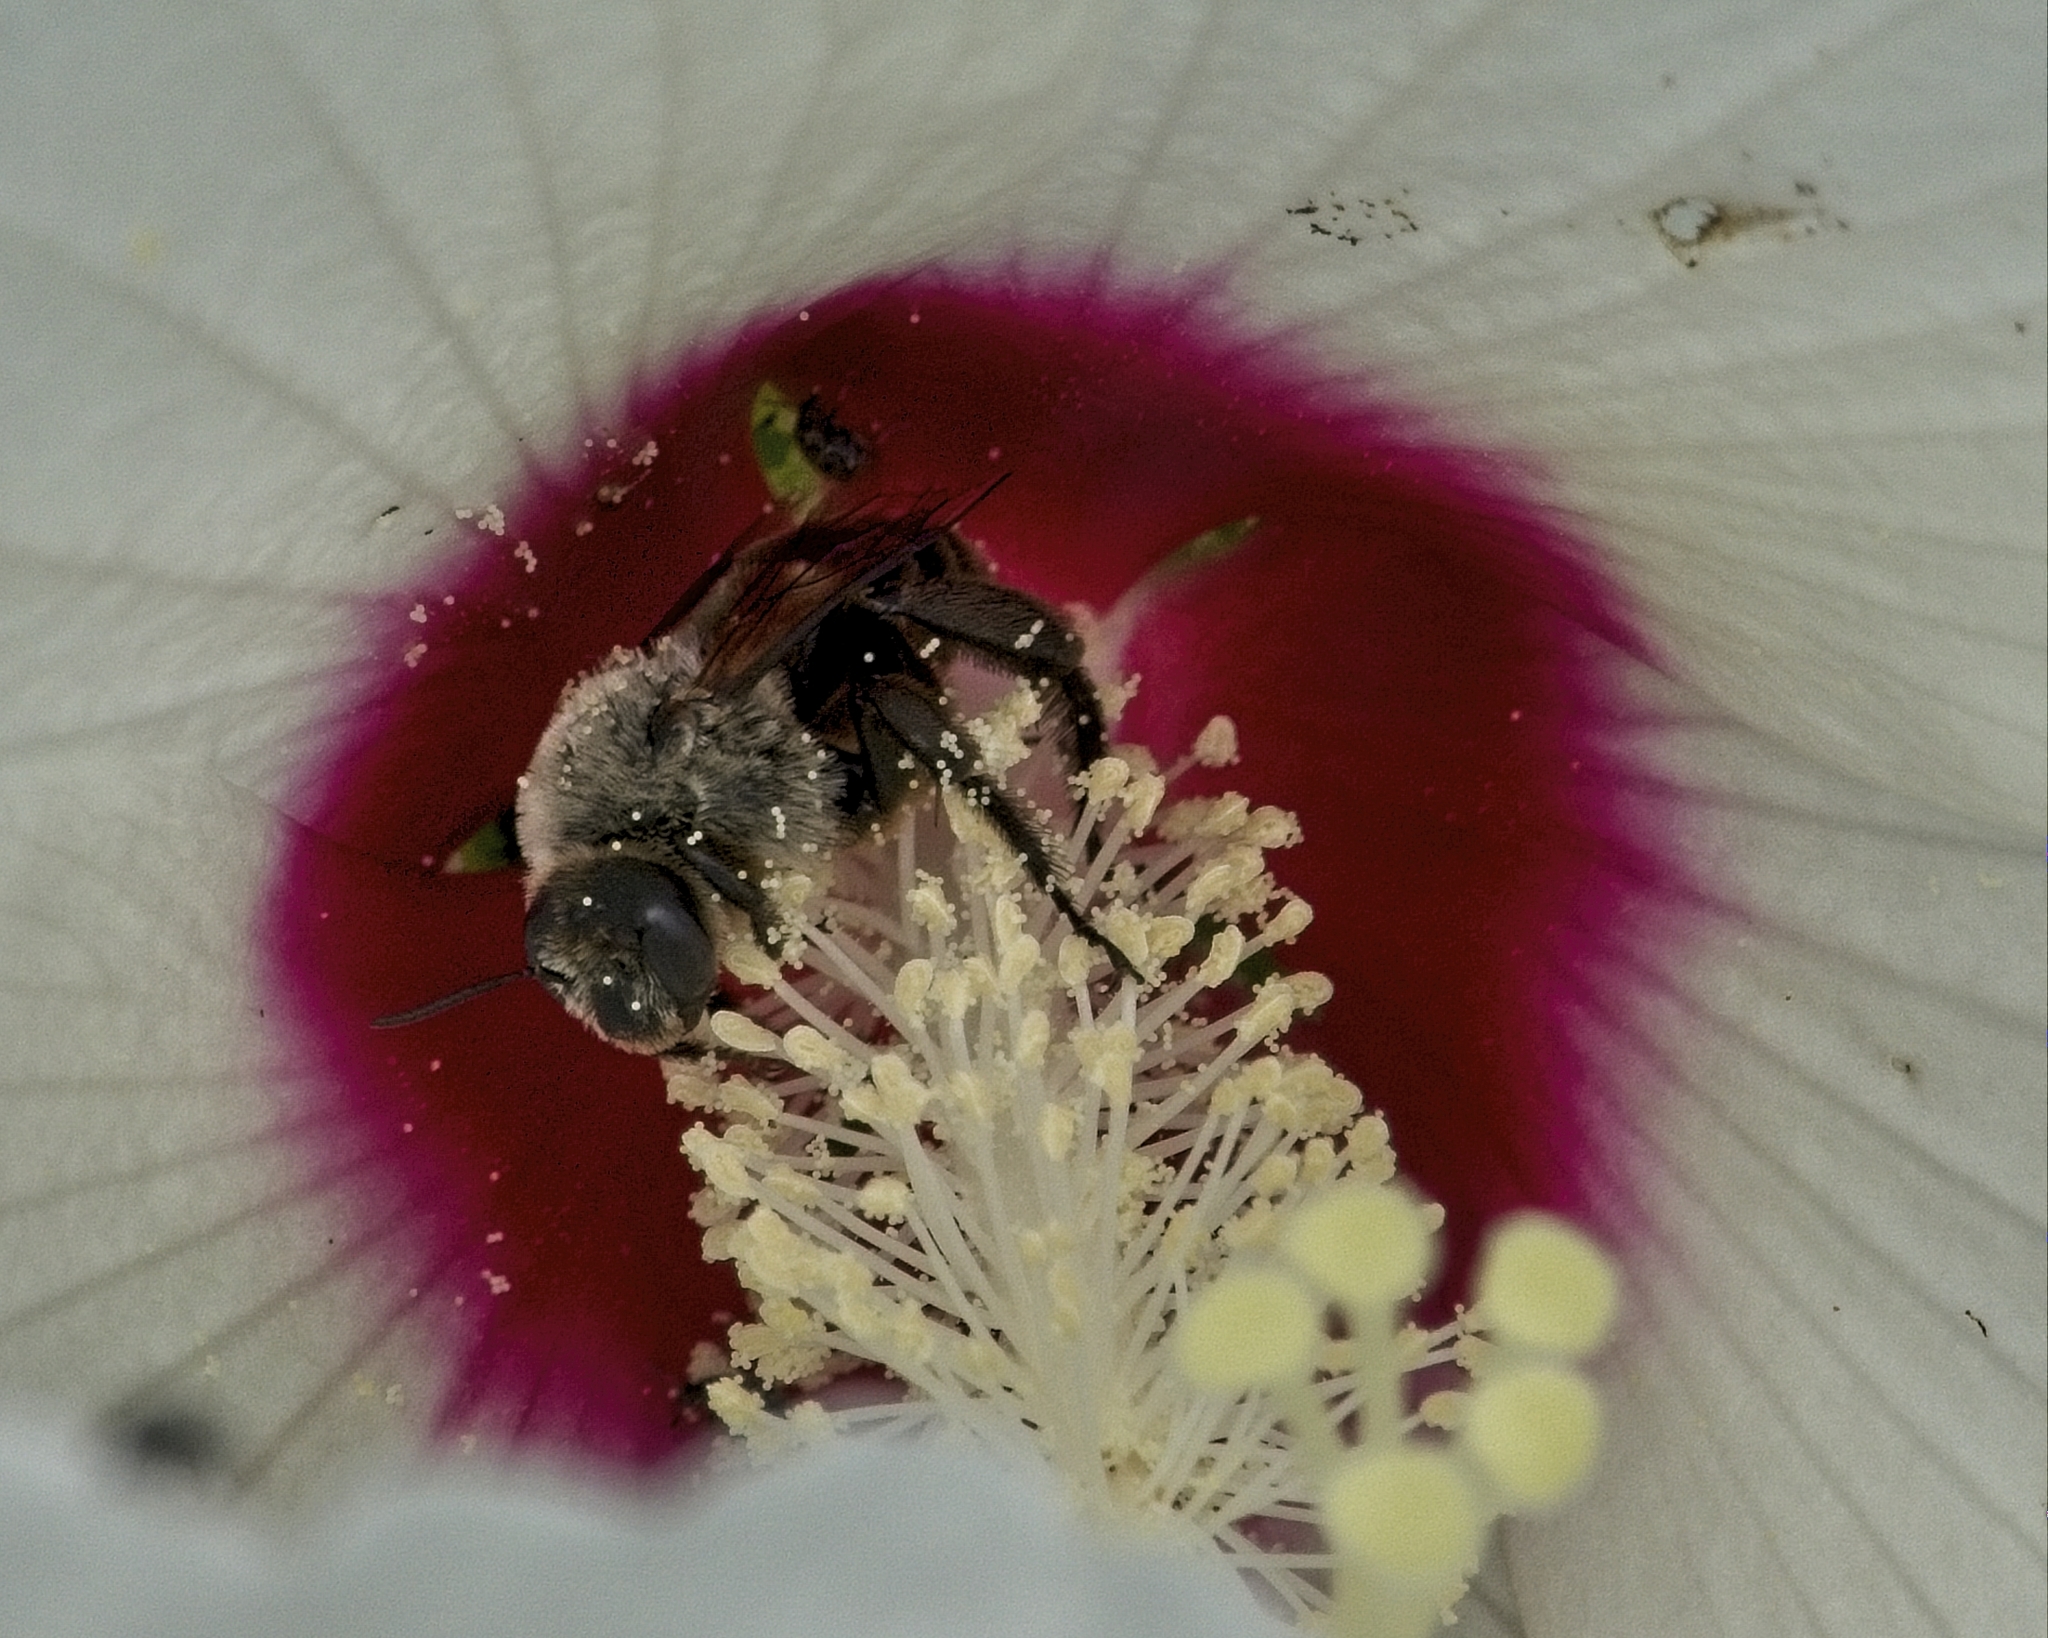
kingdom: Animalia
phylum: Arthropoda
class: Insecta
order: Hymenoptera
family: Apidae
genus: Ptilothrix
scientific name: Ptilothrix bombiformis
